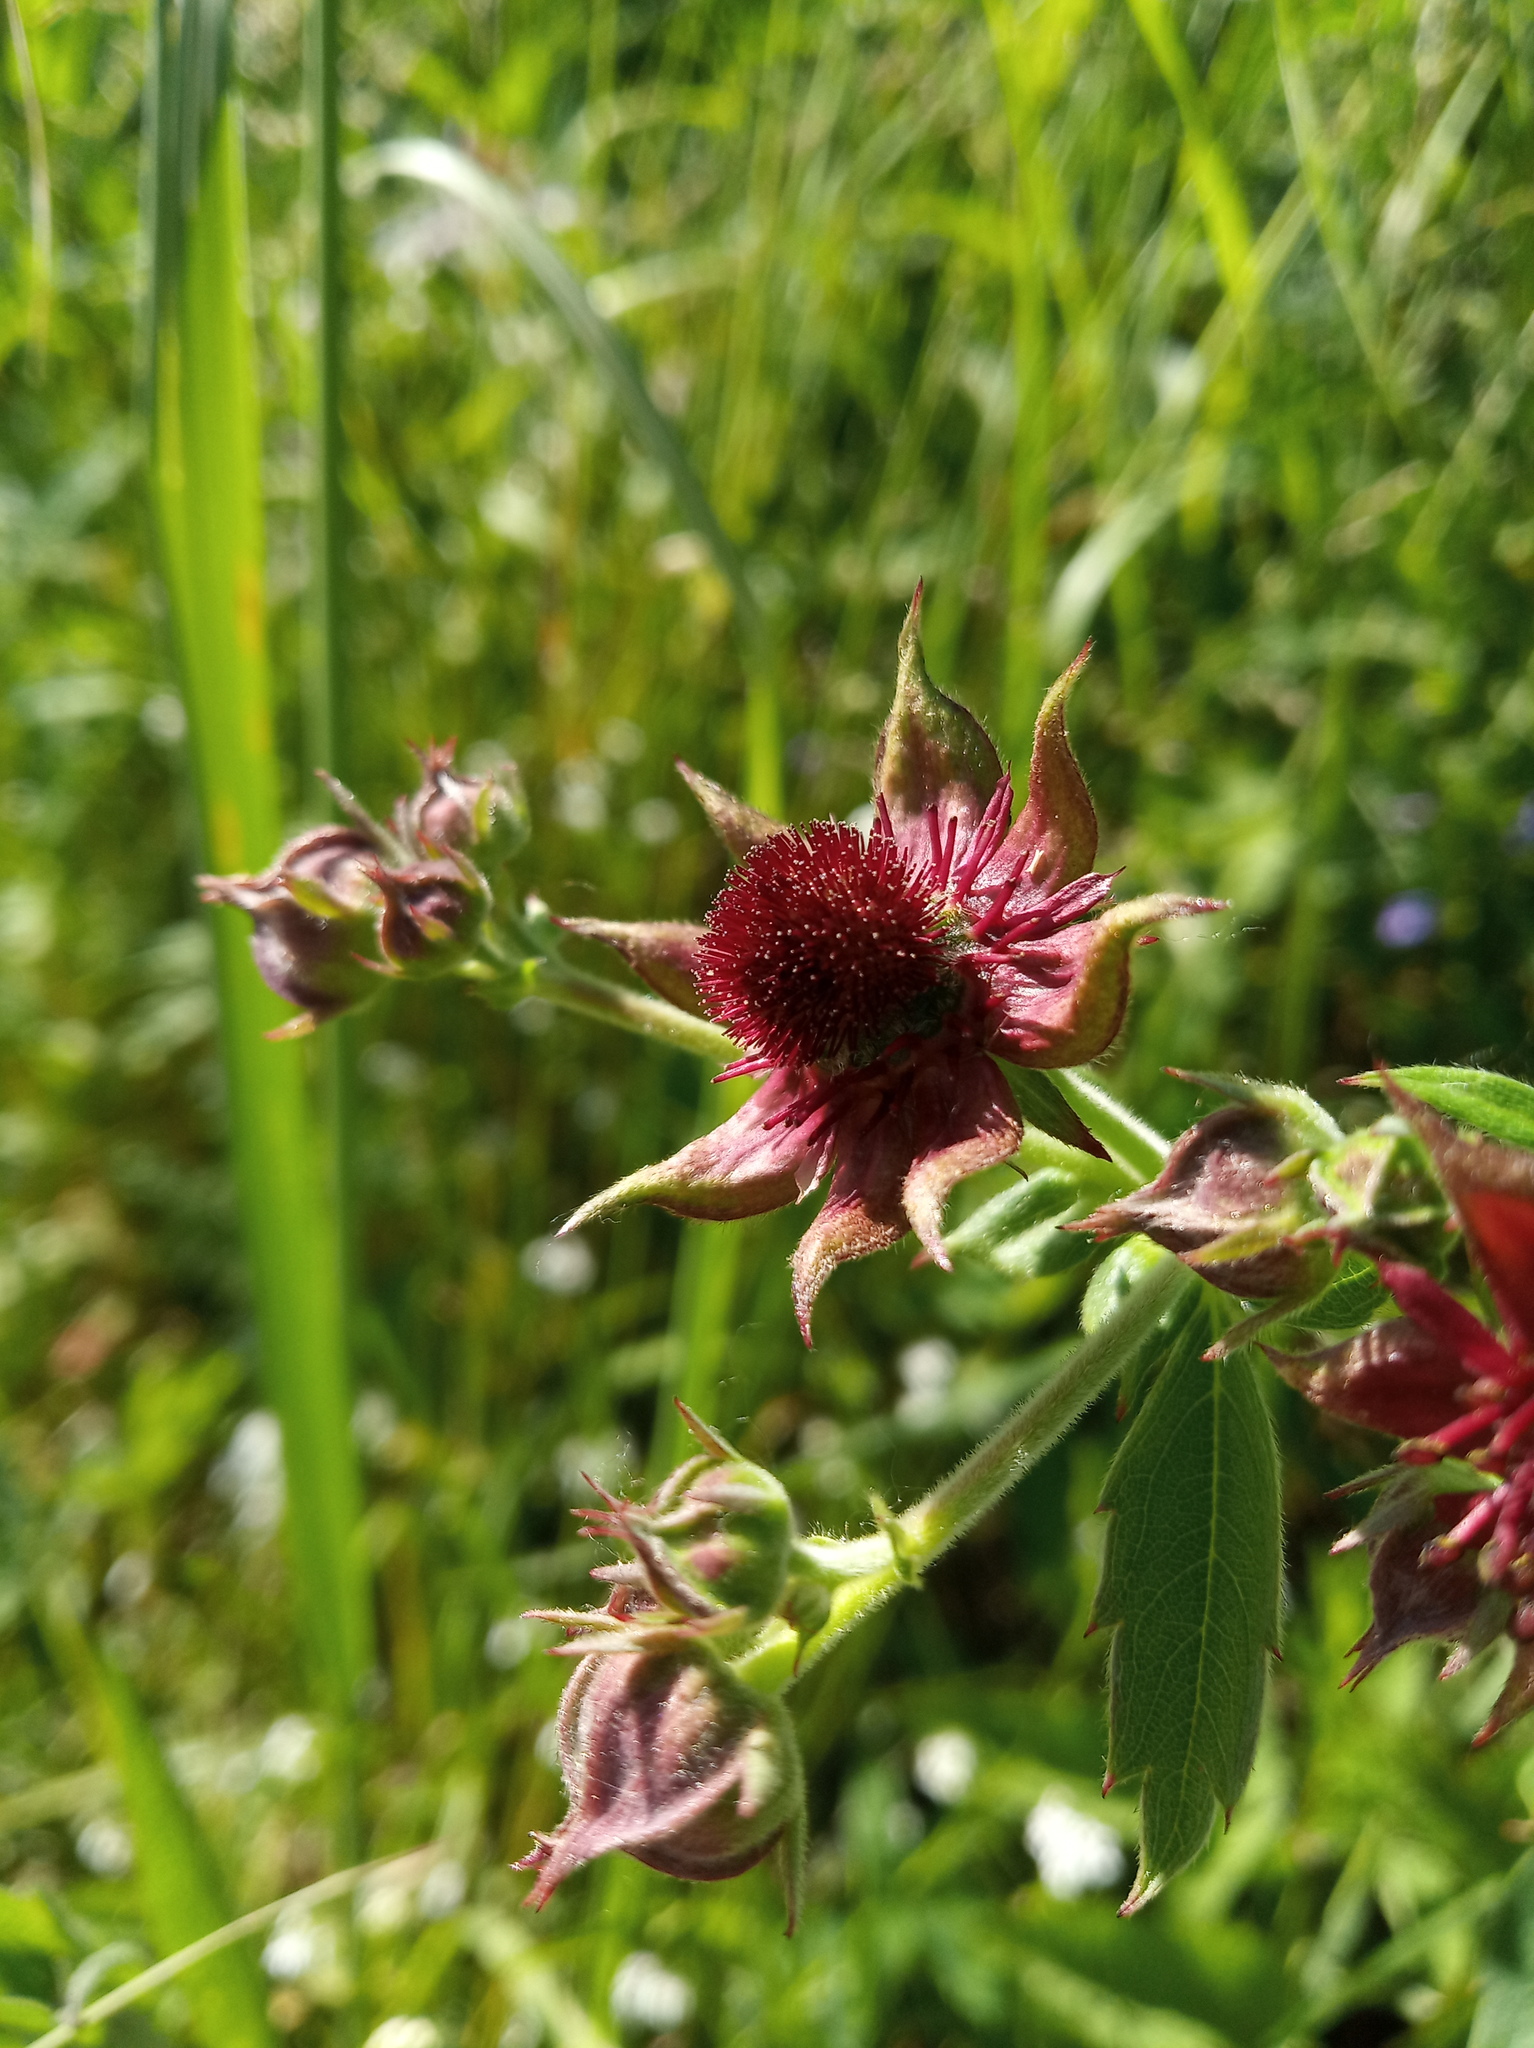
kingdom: Plantae
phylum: Tracheophyta
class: Magnoliopsida
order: Rosales
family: Rosaceae
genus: Comarum
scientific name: Comarum palustre
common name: Marsh cinquefoil
